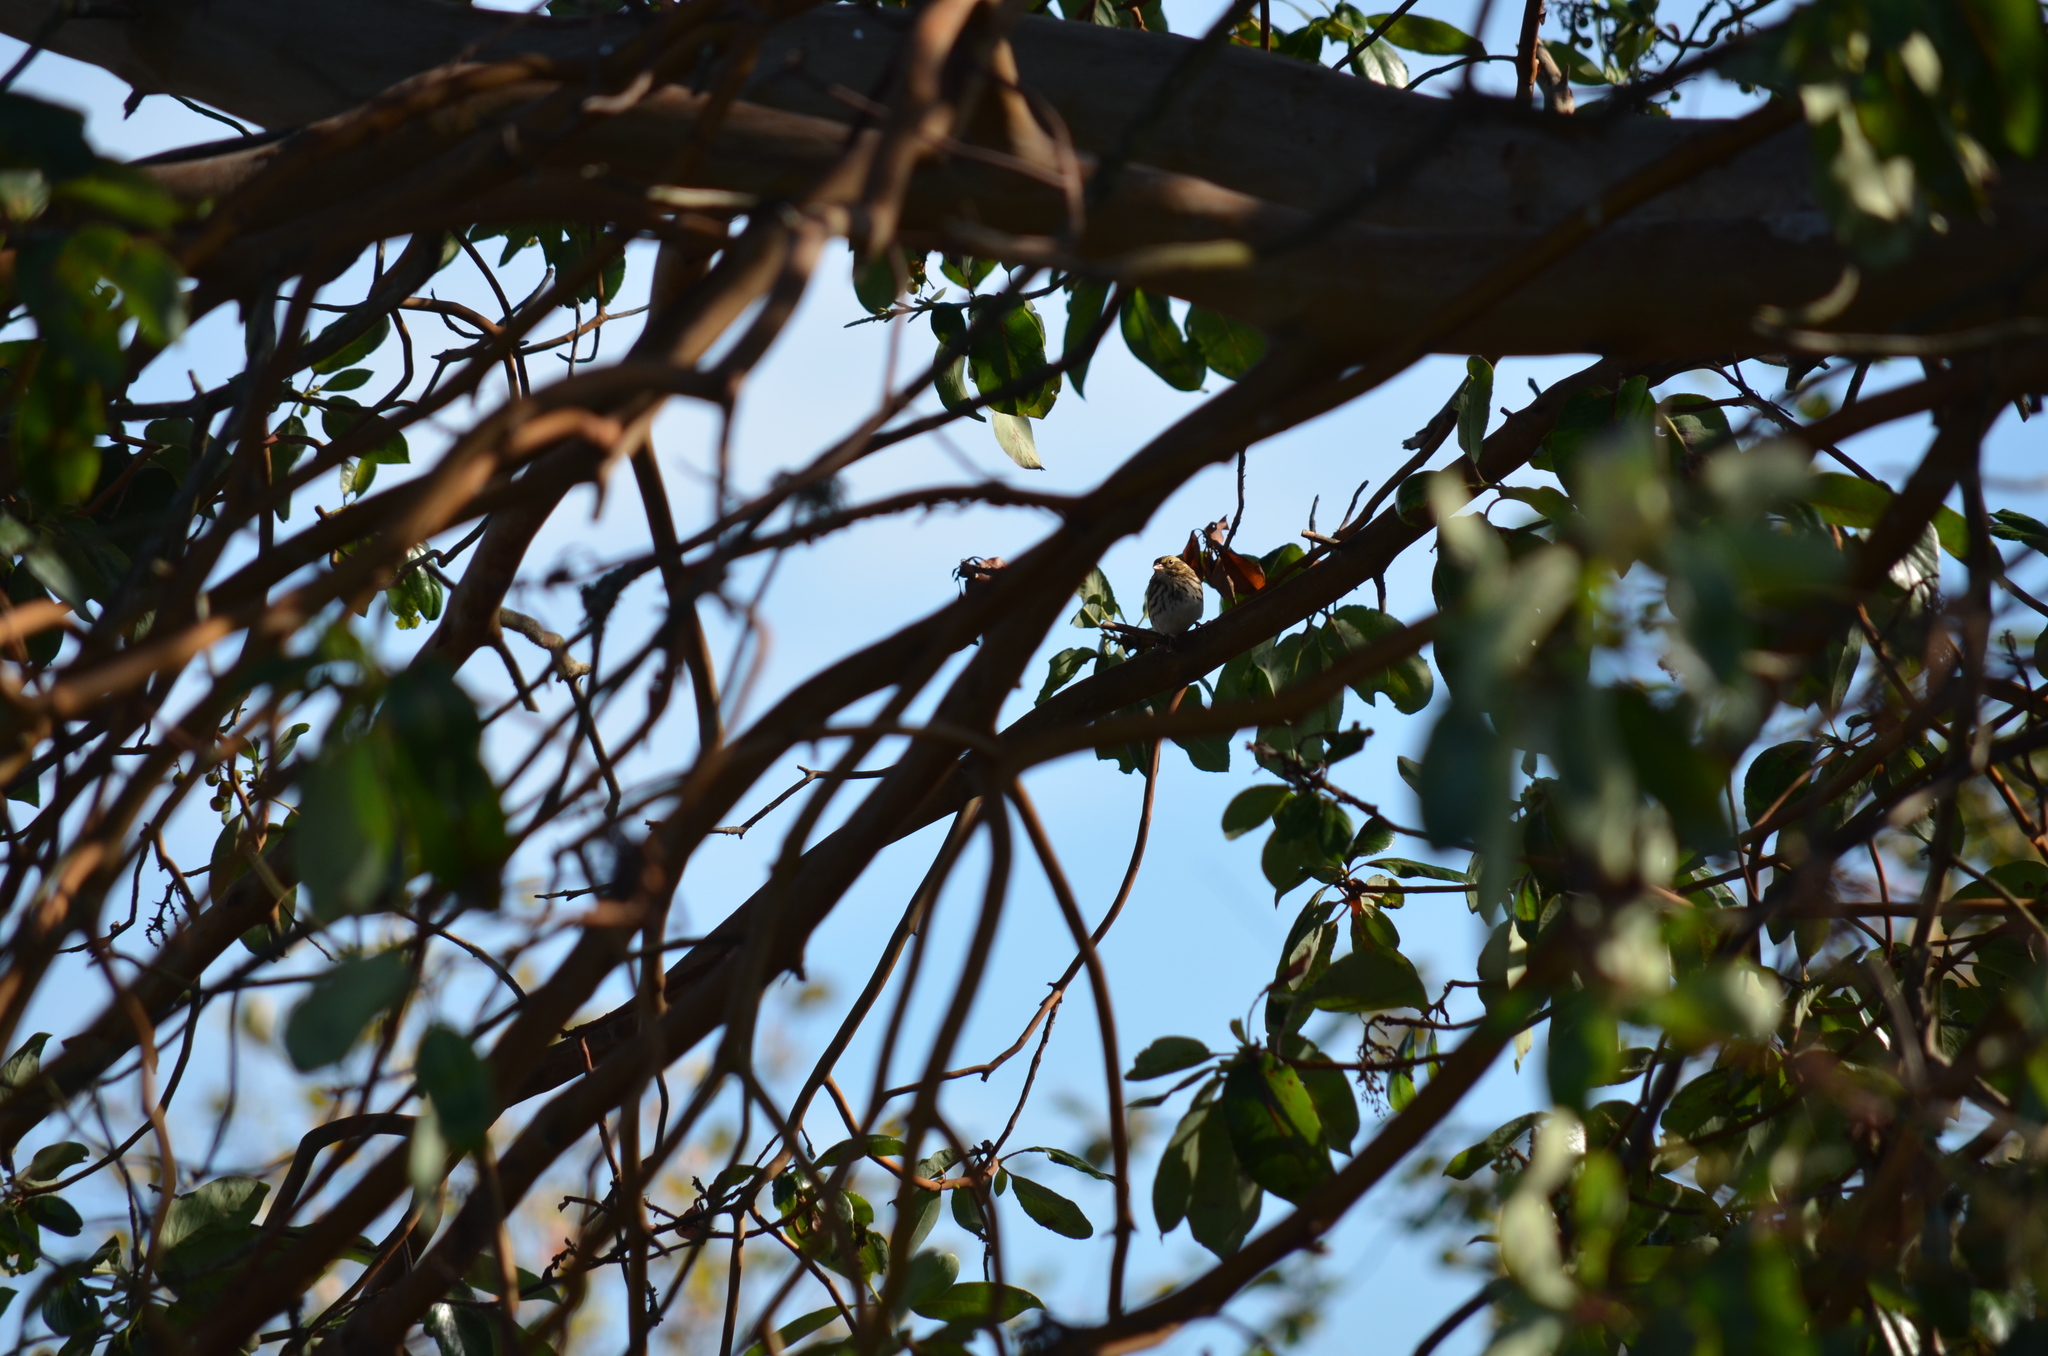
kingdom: Animalia
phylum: Chordata
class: Aves
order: Passeriformes
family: Passerellidae
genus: Passerculus
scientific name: Passerculus sandwichensis
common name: Savannah sparrow
